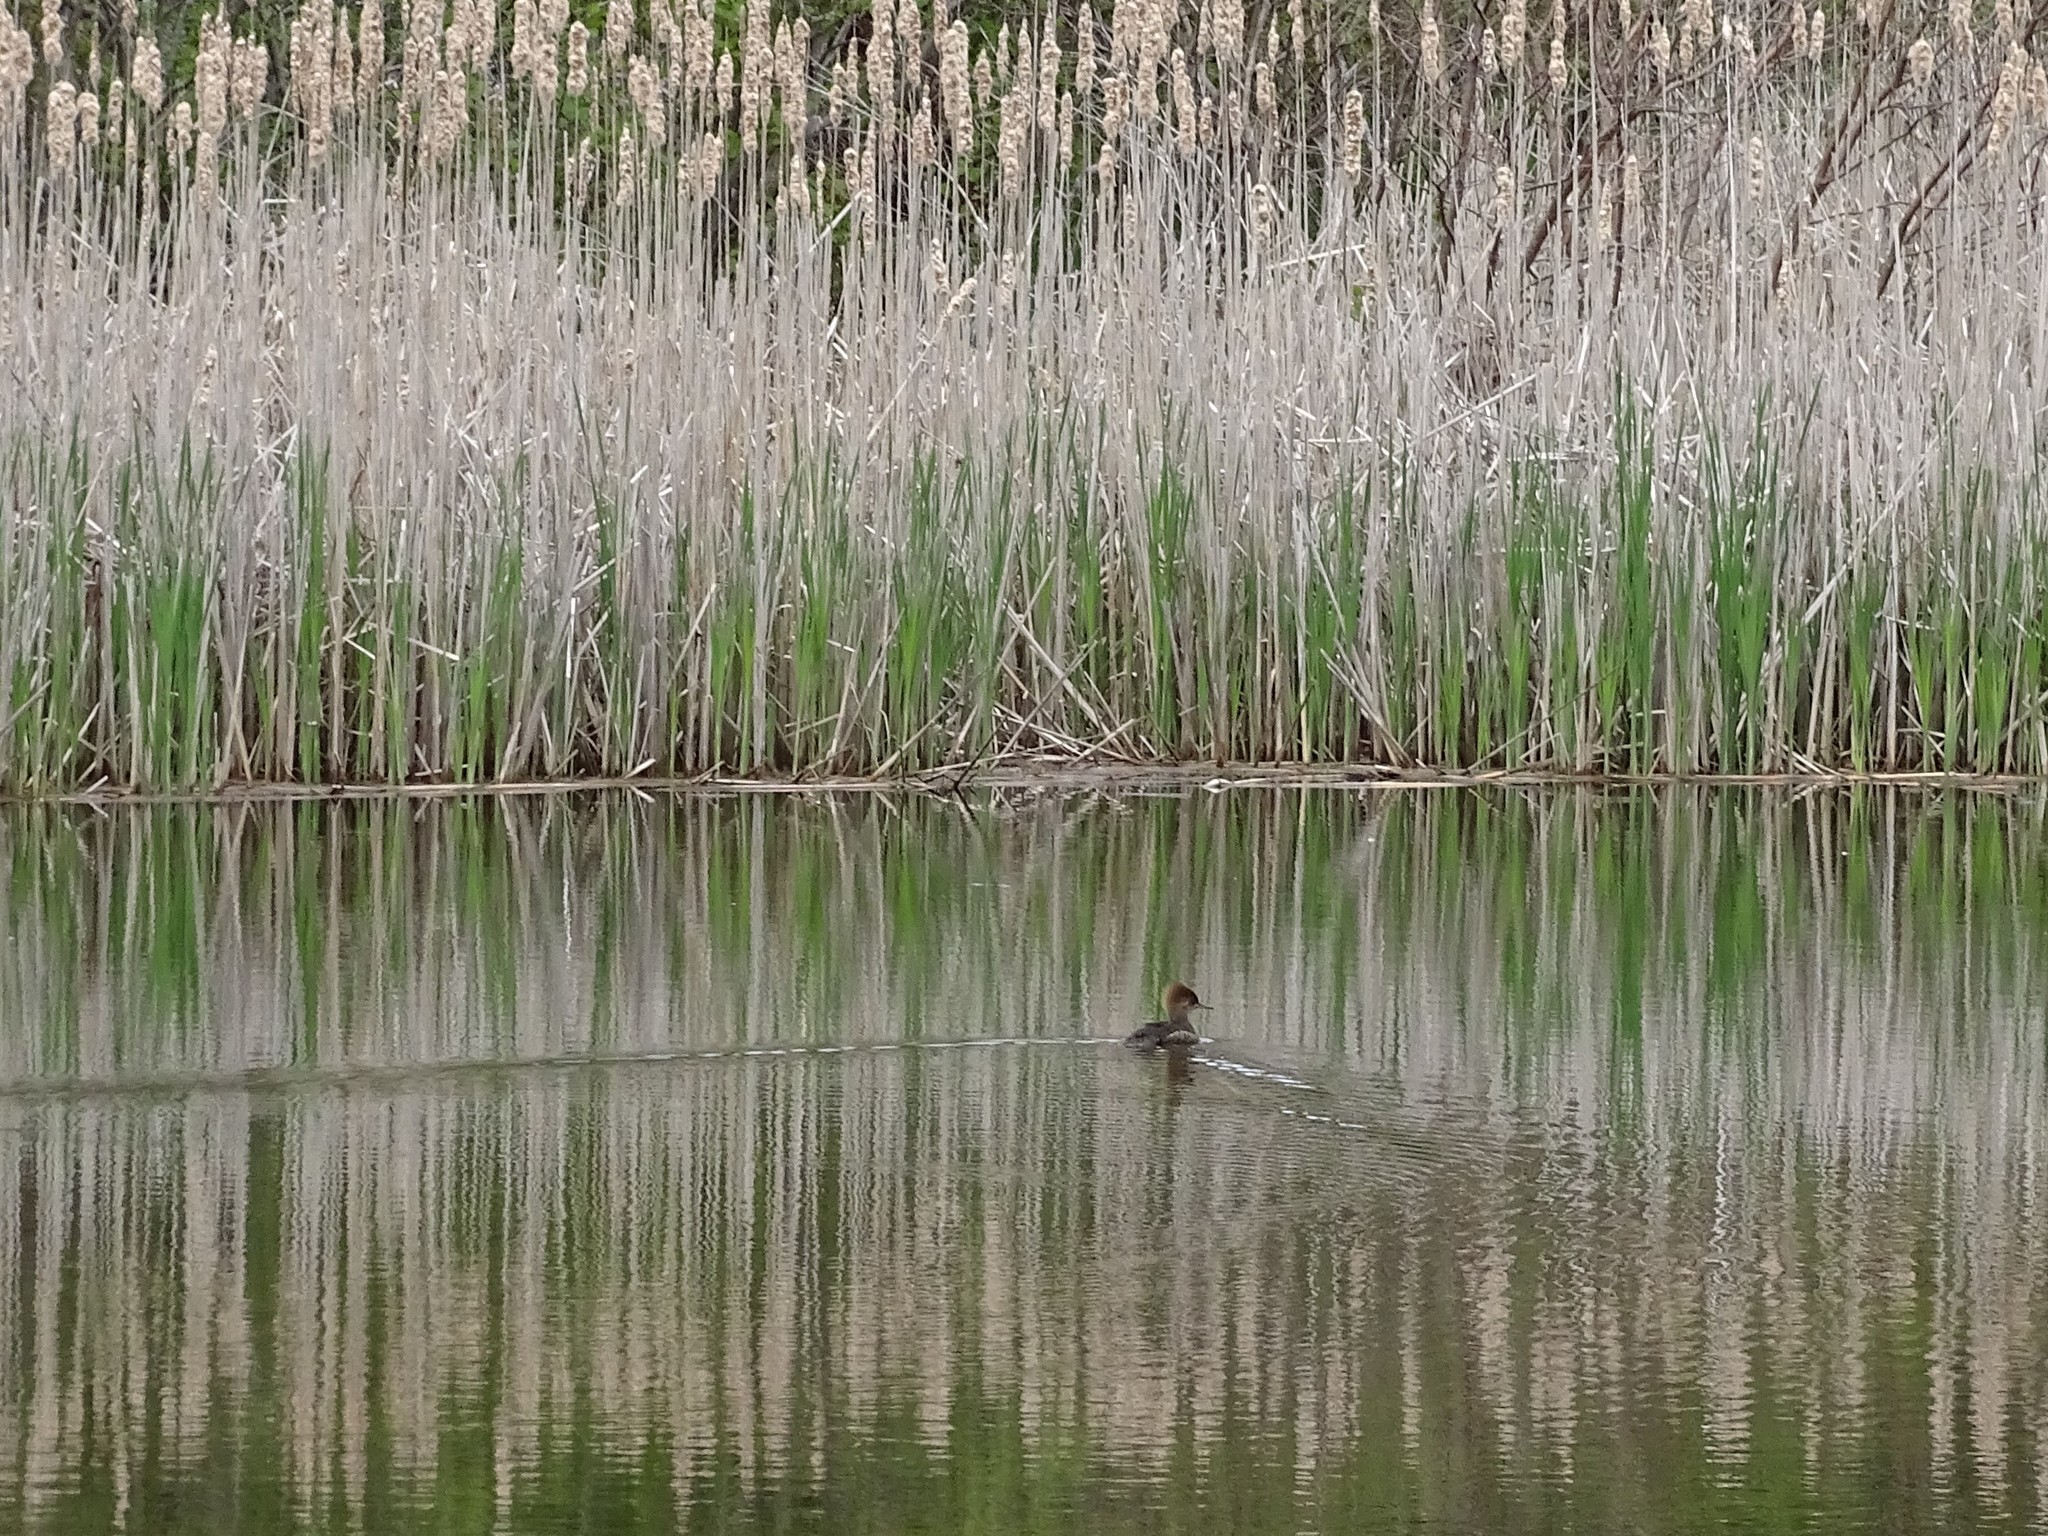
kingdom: Animalia
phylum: Chordata
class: Aves
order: Anseriformes
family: Anatidae
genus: Lophodytes
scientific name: Lophodytes cucullatus
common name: Hooded merganser
